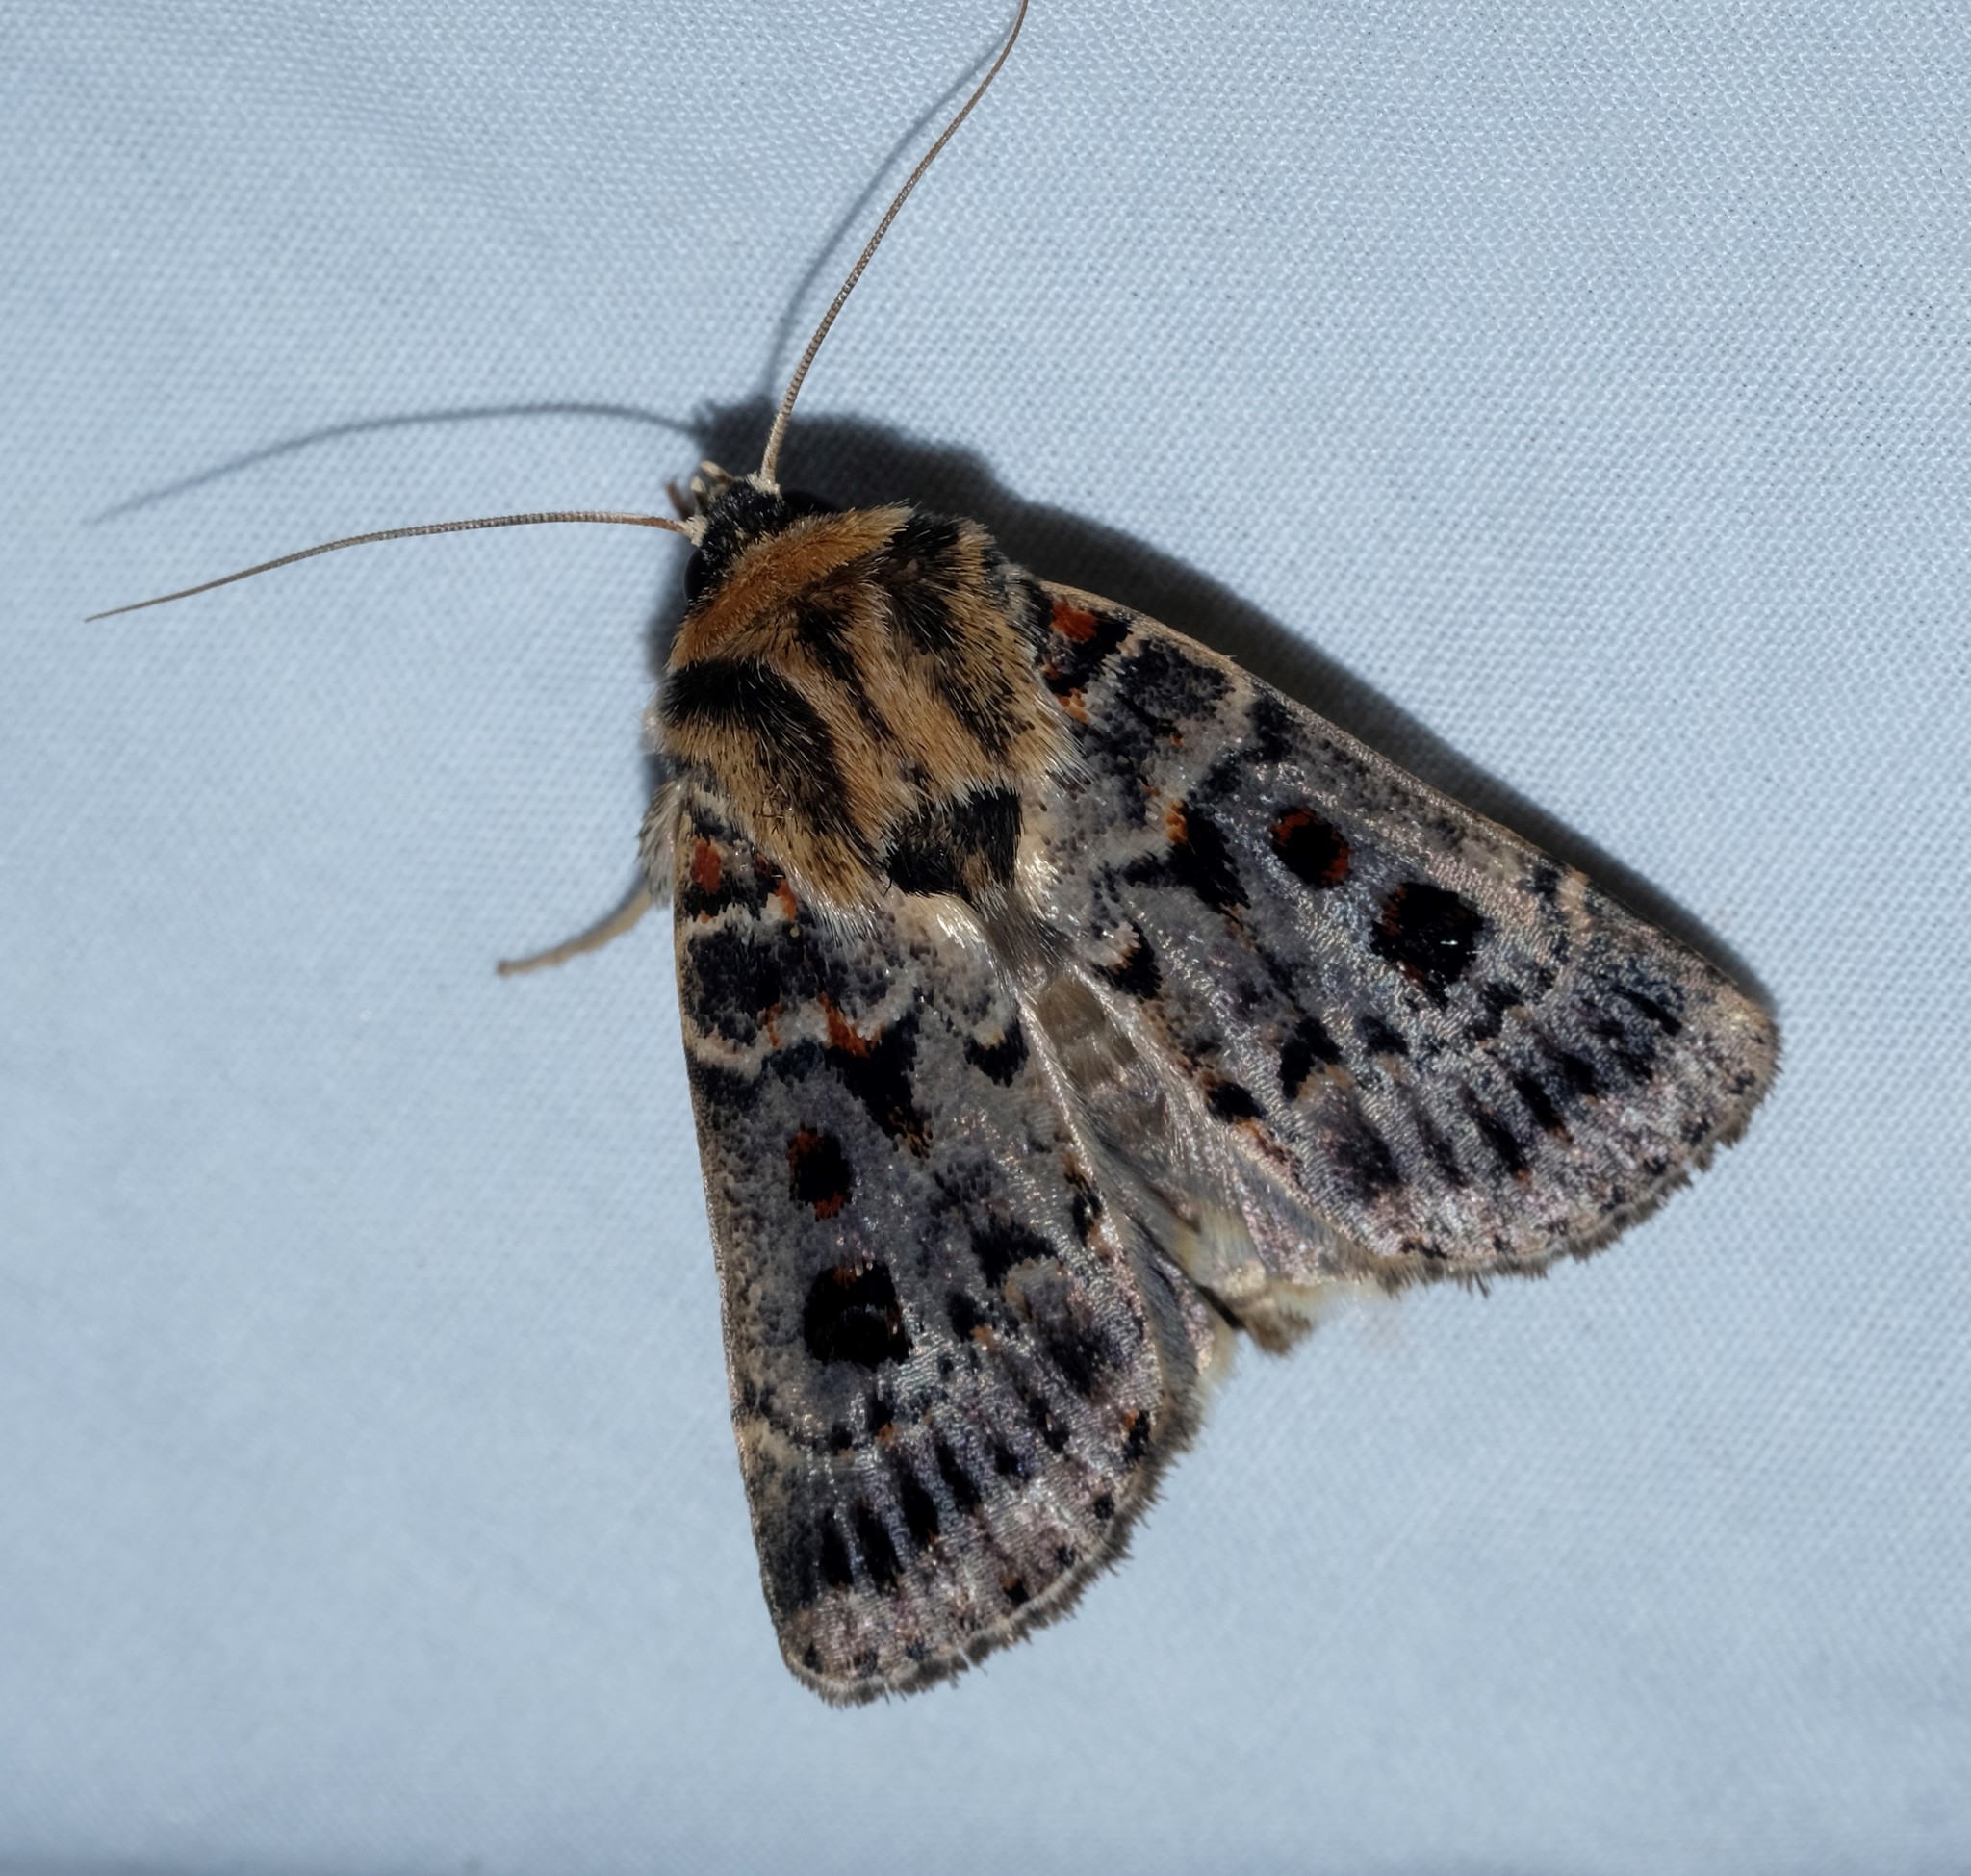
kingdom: Animalia
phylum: Arthropoda
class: Insecta
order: Lepidoptera
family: Noctuidae
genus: Proteuxoa
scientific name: Proteuxoa sanguinipuncta
